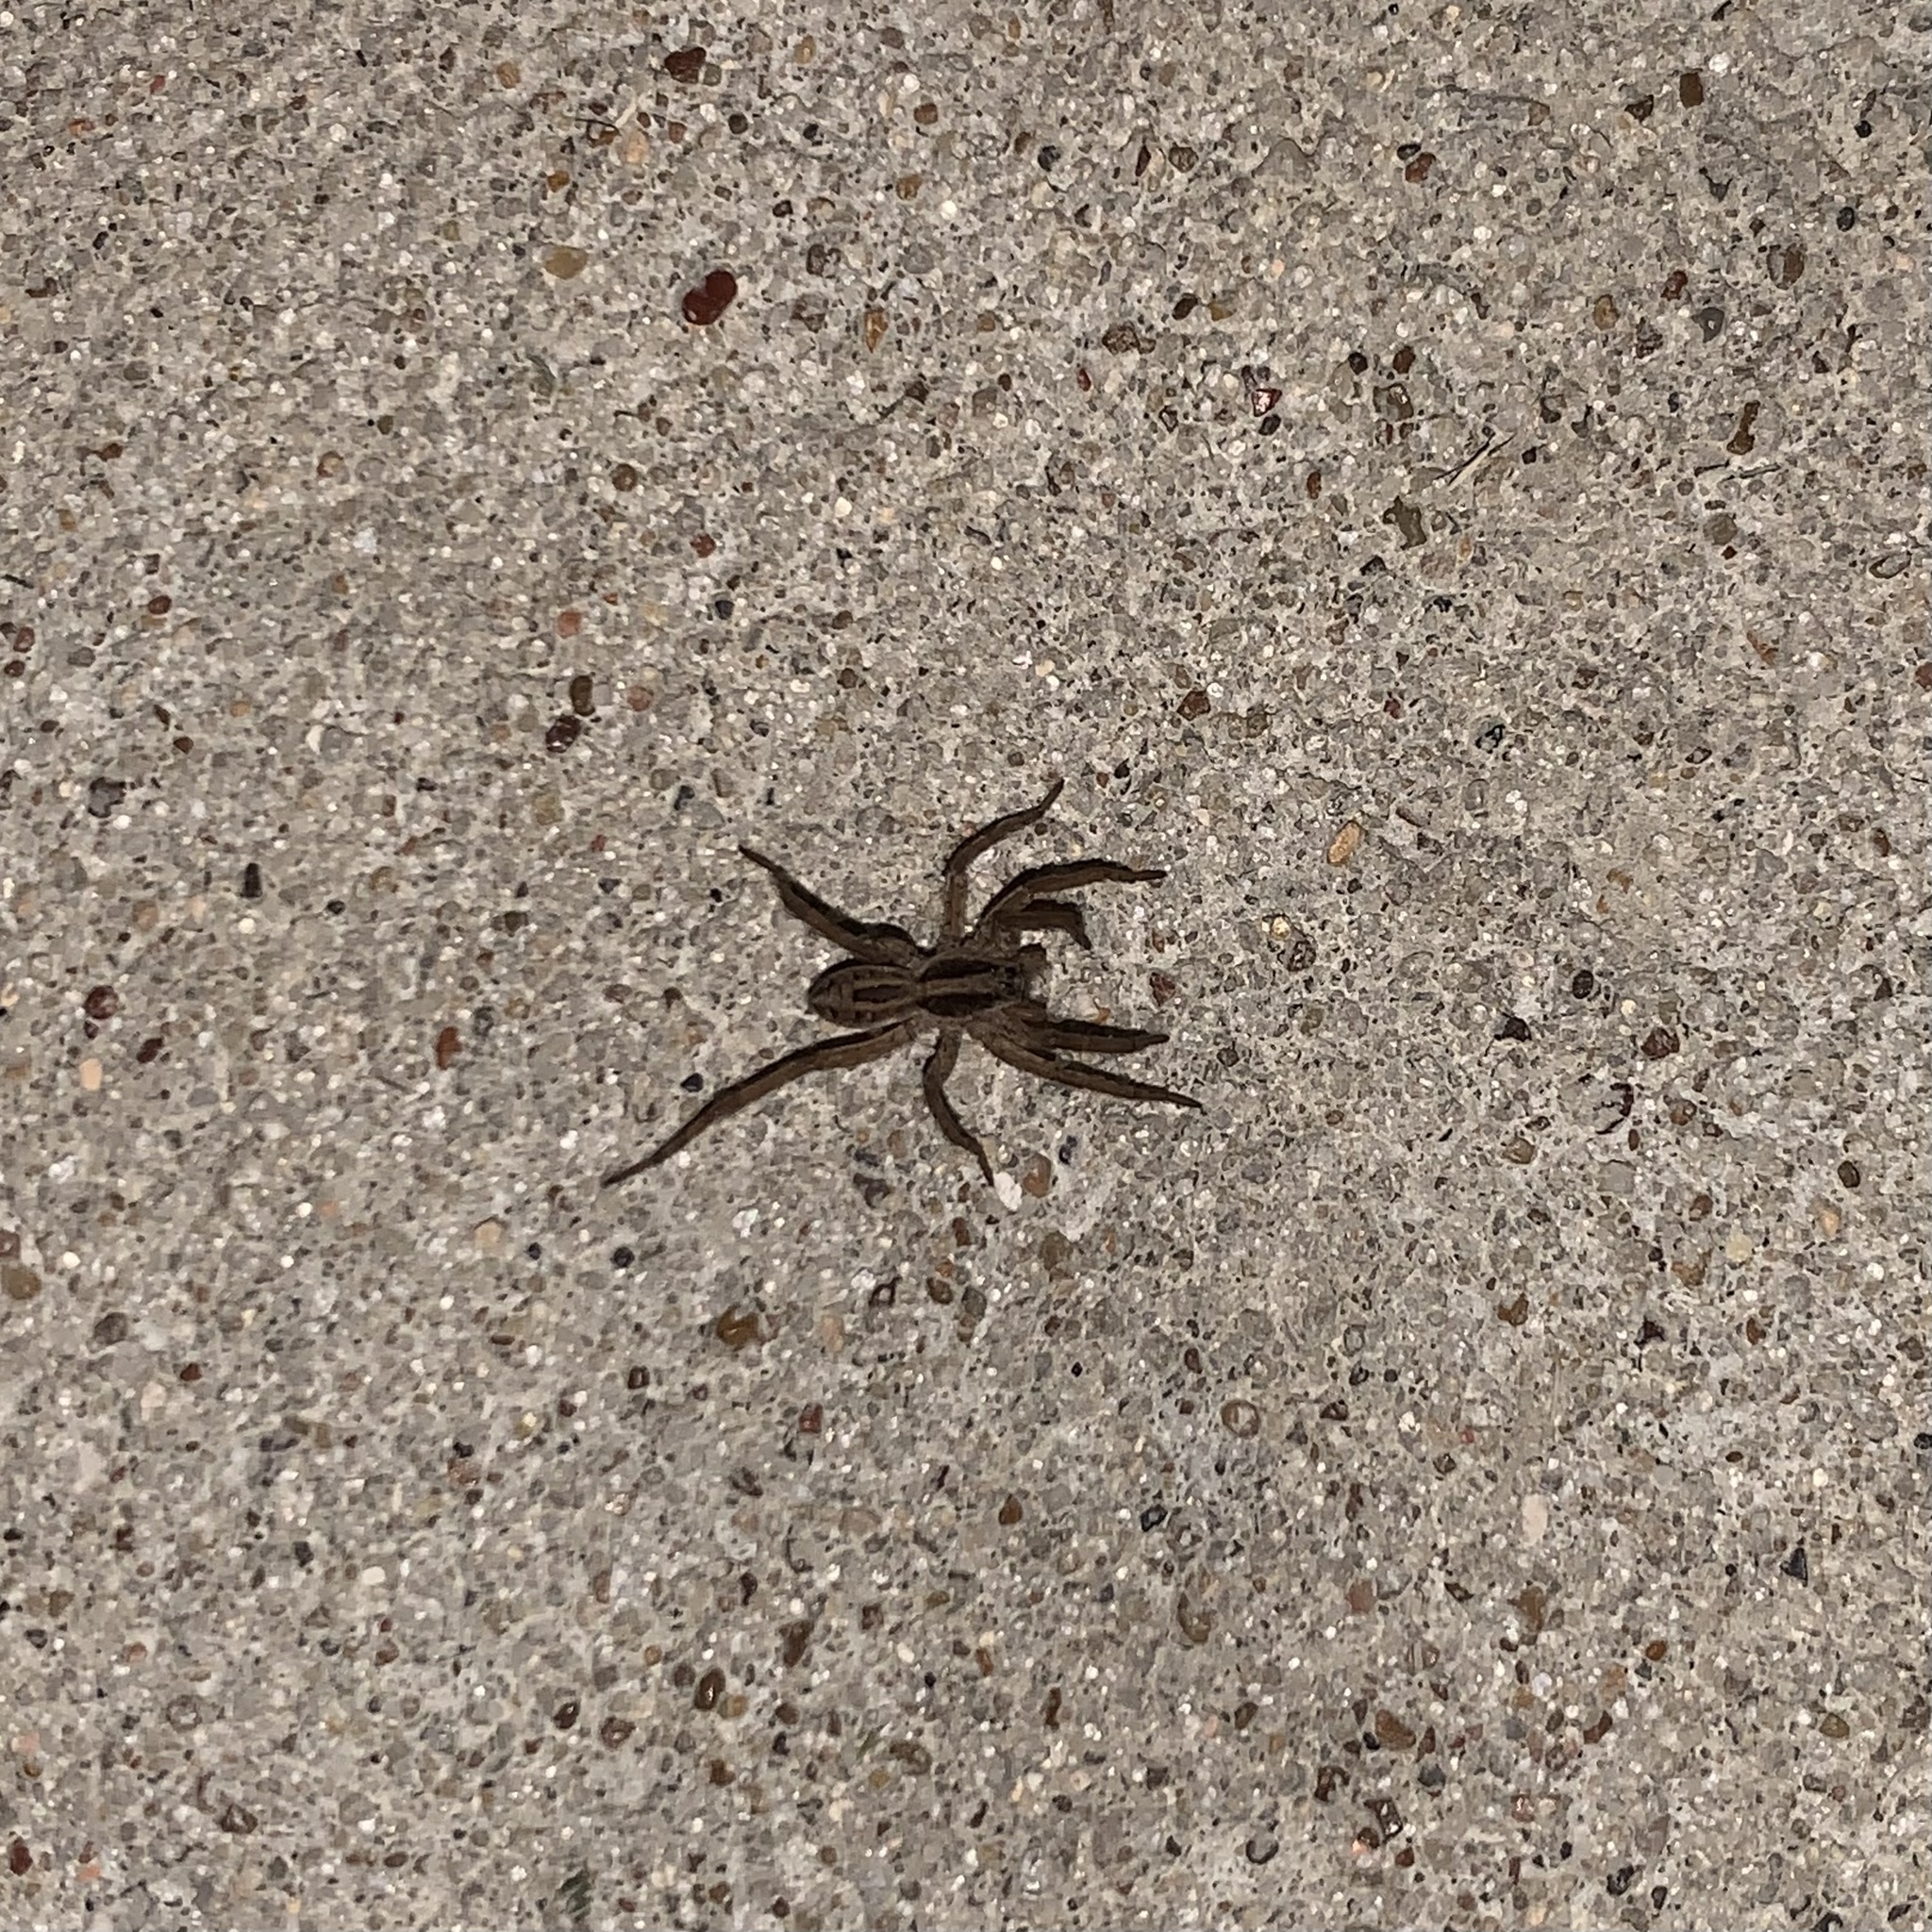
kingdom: Animalia
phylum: Arthropoda
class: Arachnida
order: Araneae
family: Lycosidae
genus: Schizocosa
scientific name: Schizocosa avida
